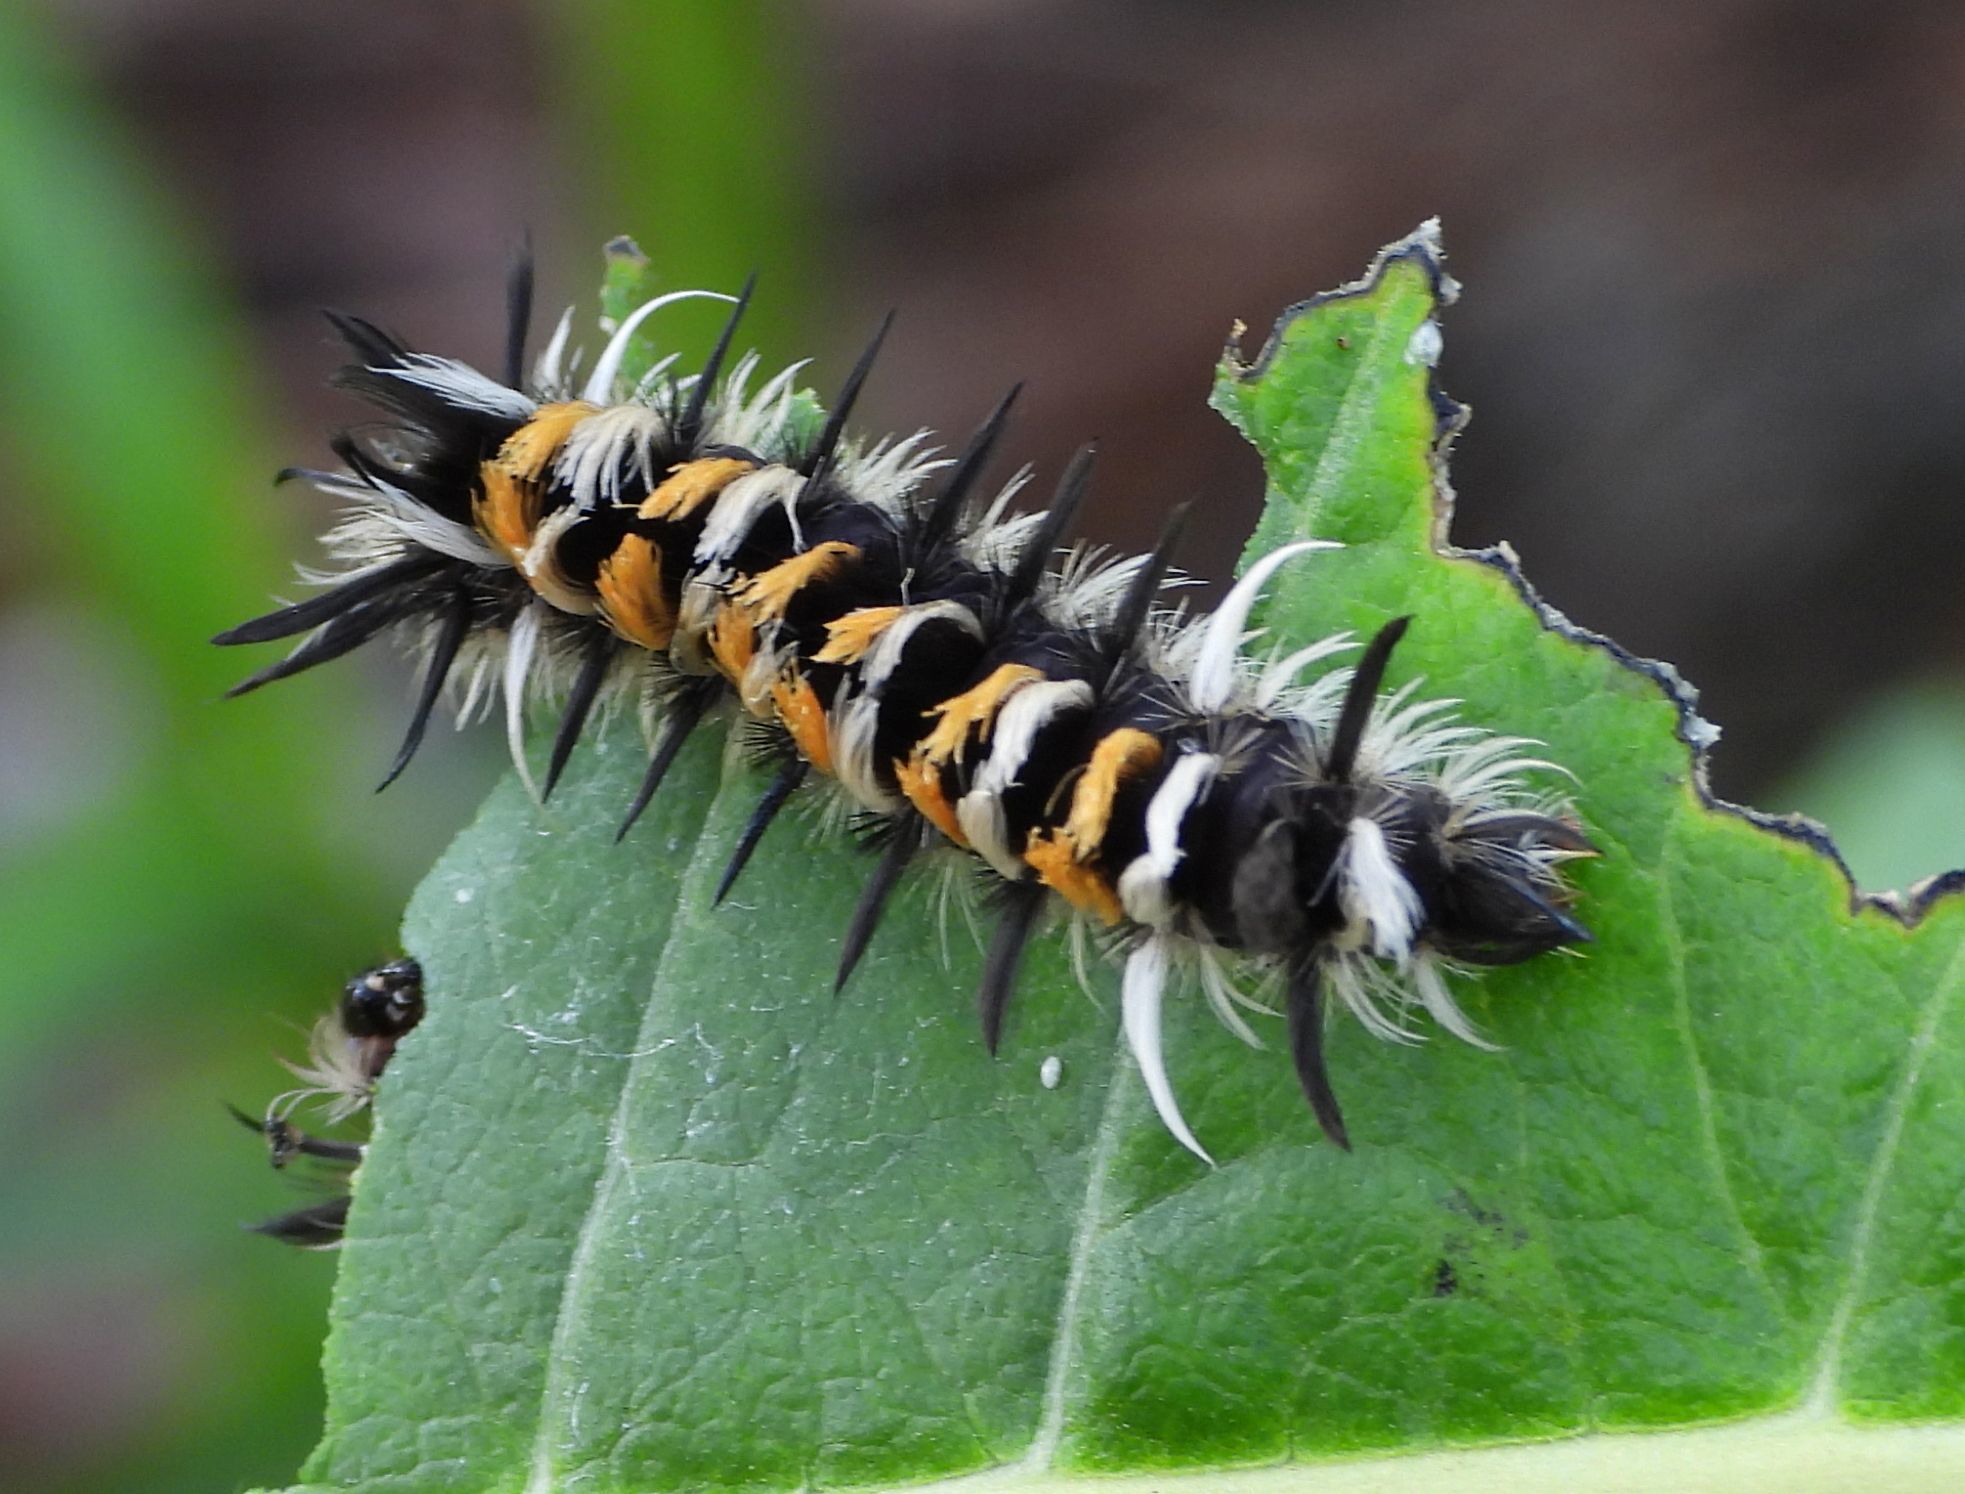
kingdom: Animalia
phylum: Arthropoda
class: Insecta
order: Lepidoptera
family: Erebidae
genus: Euchaetes
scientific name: Euchaetes egle
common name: Milkweed tussock moth
